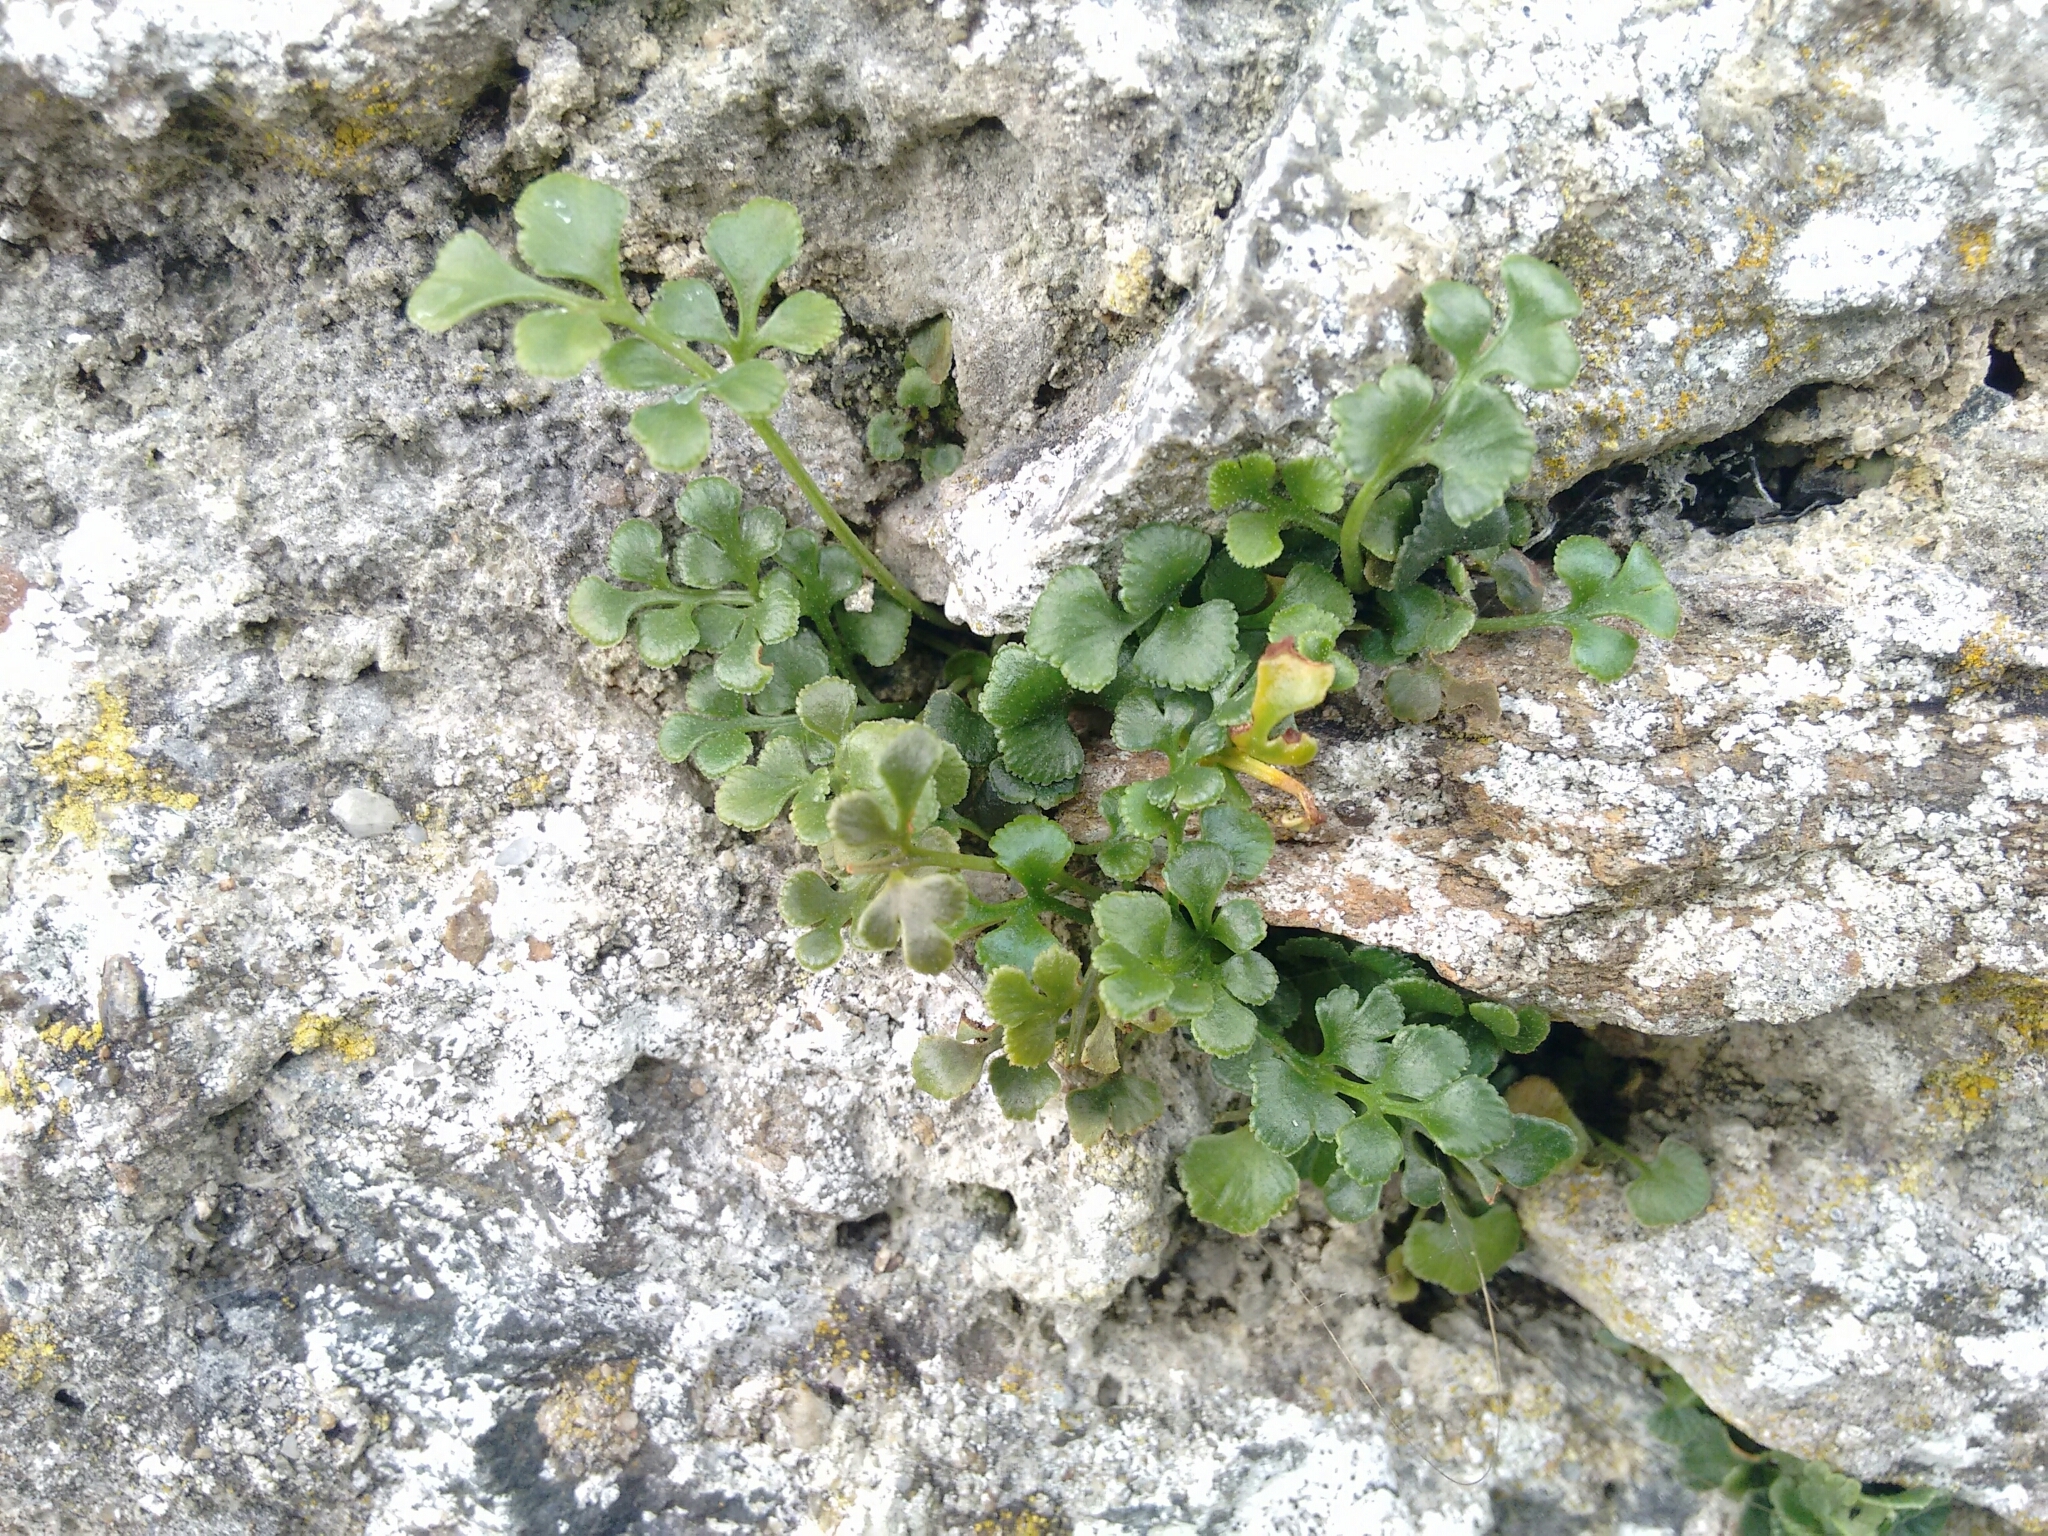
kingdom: Plantae
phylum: Tracheophyta
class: Polypodiopsida
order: Polypodiales
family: Aspleniaceae
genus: Asplenium
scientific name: Asplenium ruta-muraria
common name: Wall-rue
